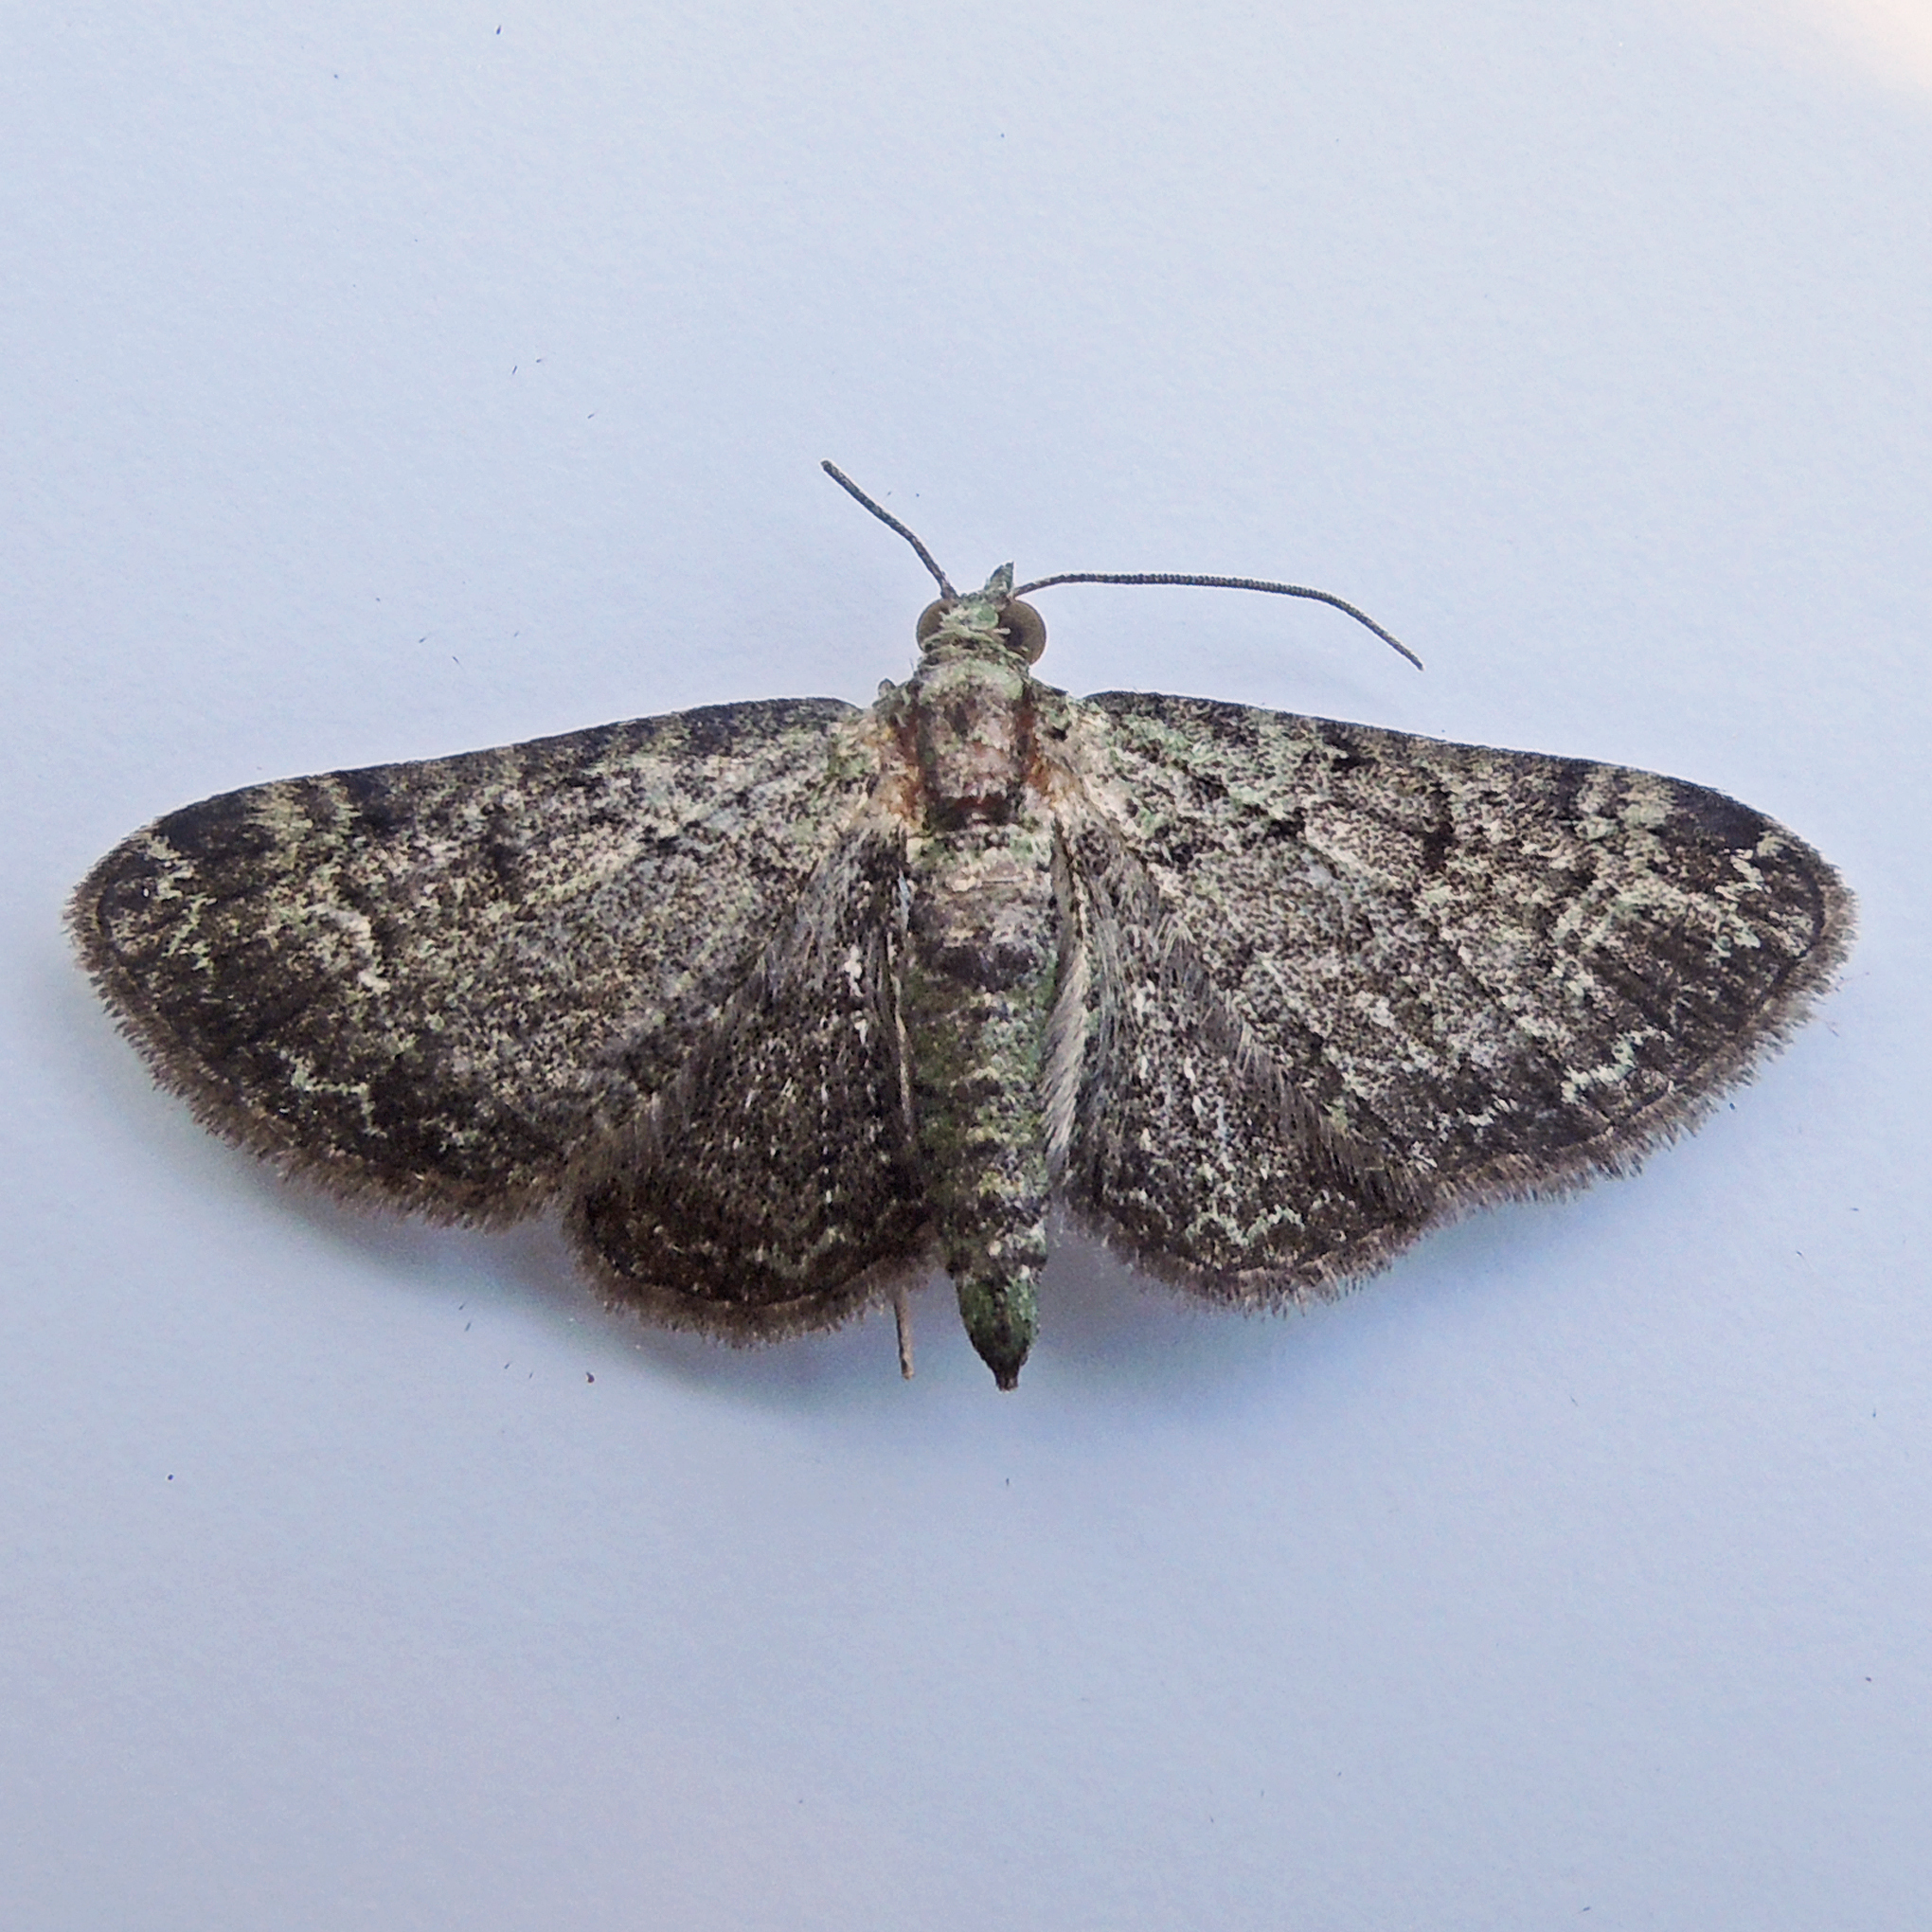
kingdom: Animalia
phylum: Arthropoda
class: Insecta
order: Lepidoptera
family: Geometridae
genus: Pasiphila
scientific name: Pasiphila rectangulata
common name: Green pug
